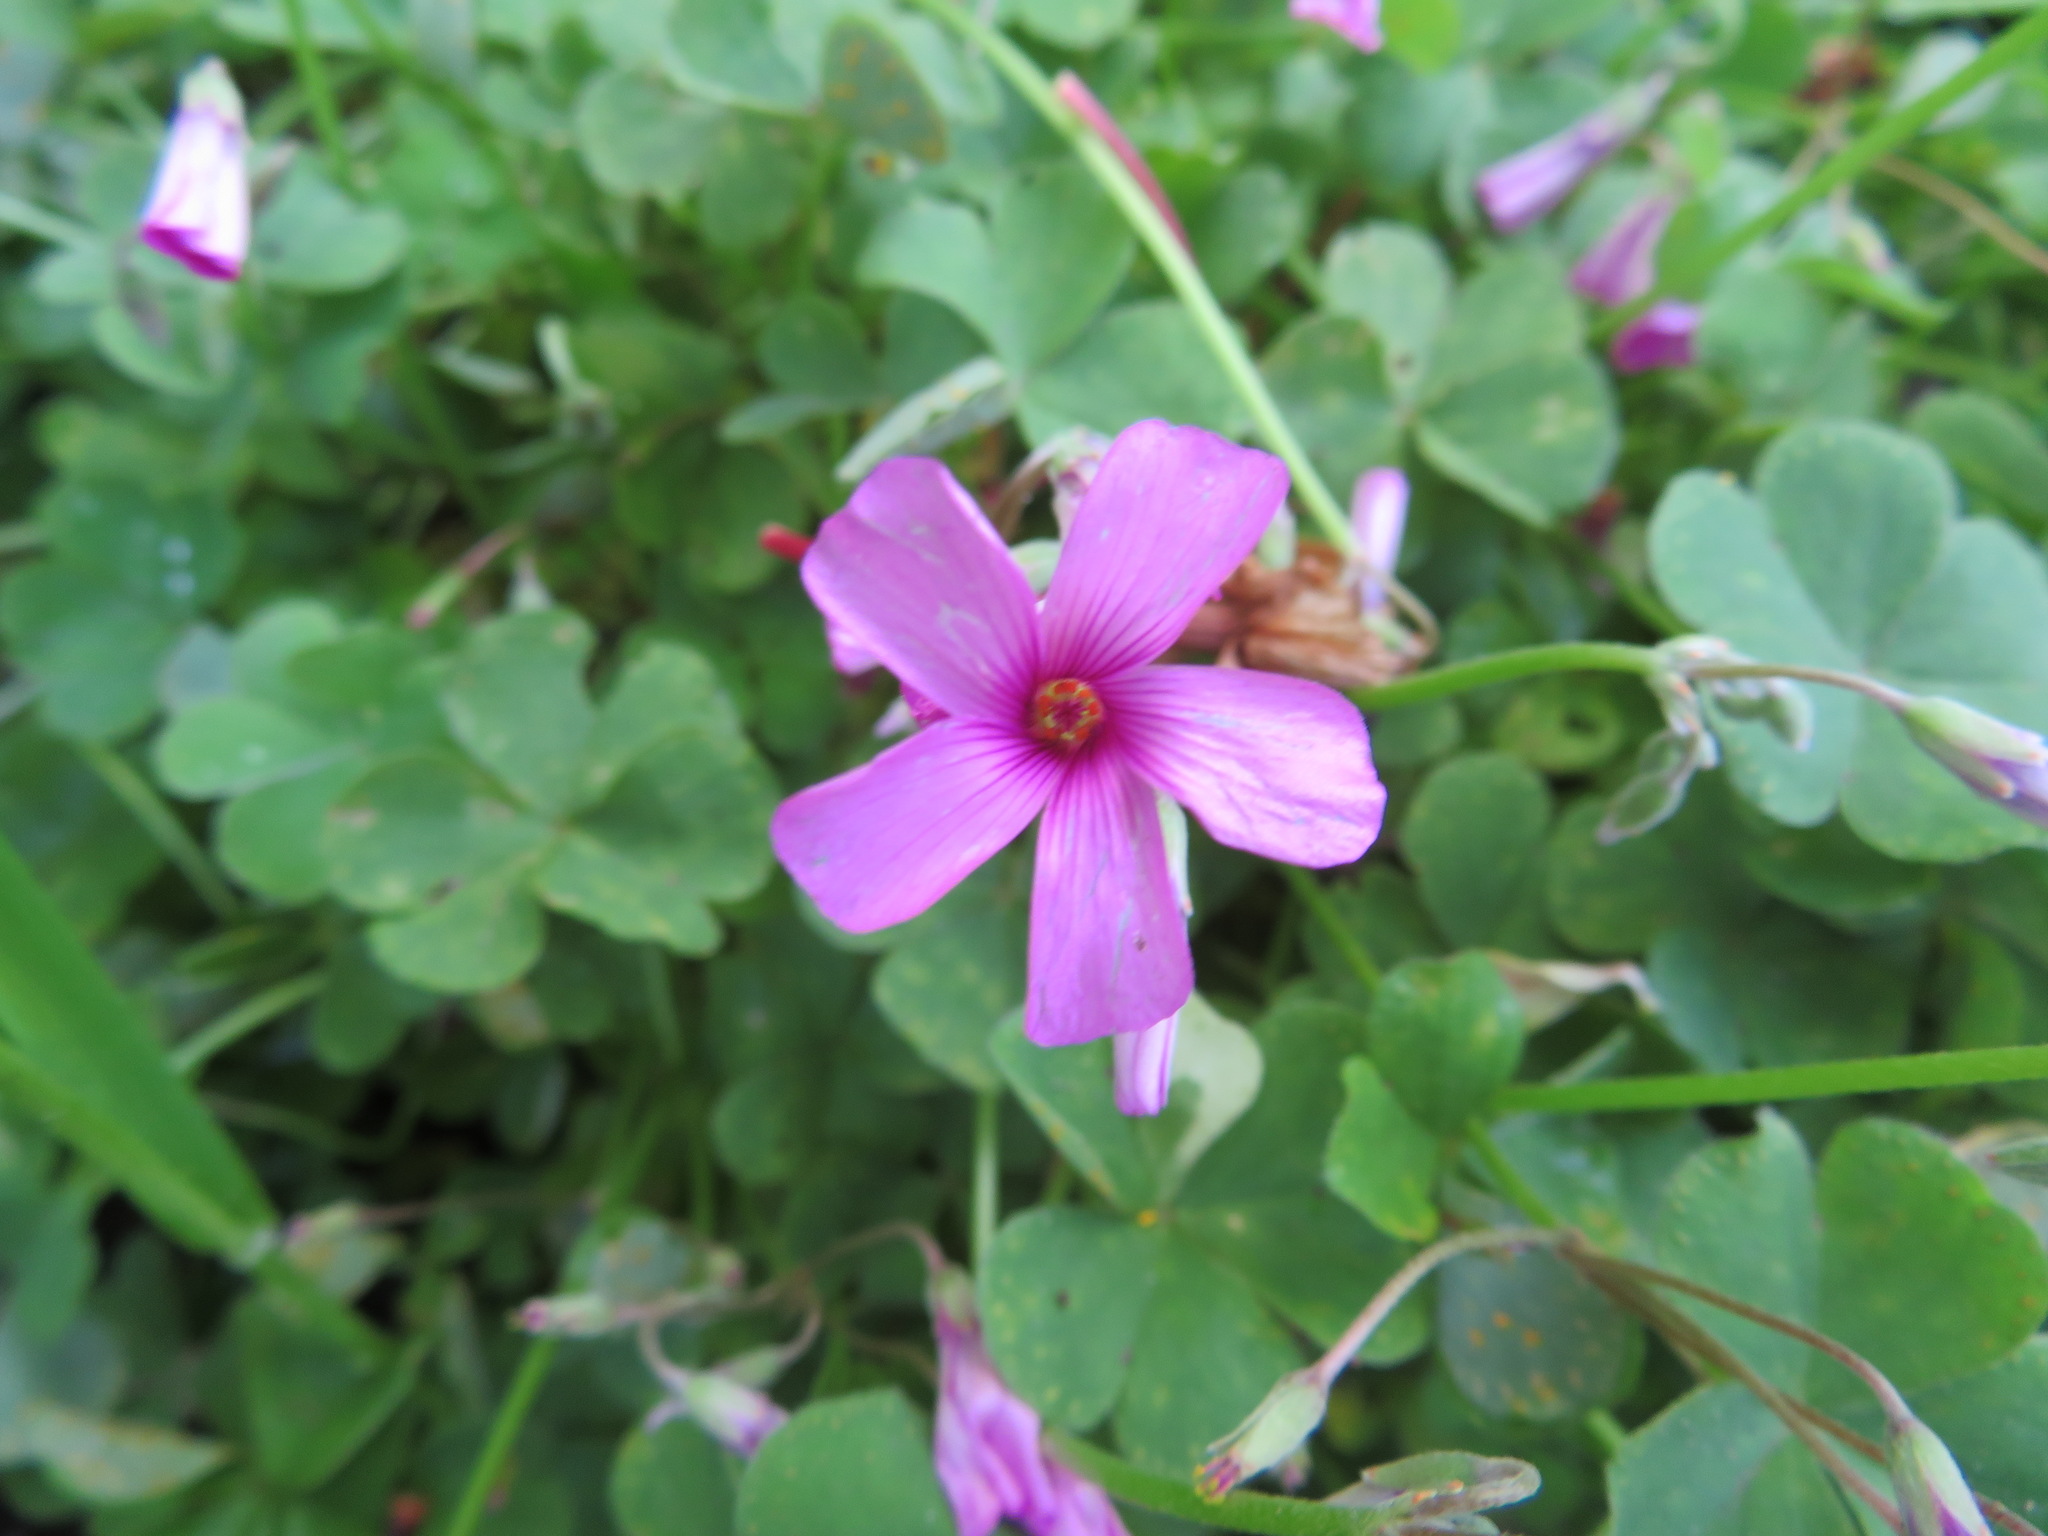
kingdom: Plantae
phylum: Tracheophyta
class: Magnoliopsida
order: Oxalidales
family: Oxalidaceae
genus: Oxalis
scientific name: Oxalis articulata
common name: Pink-sorrel
